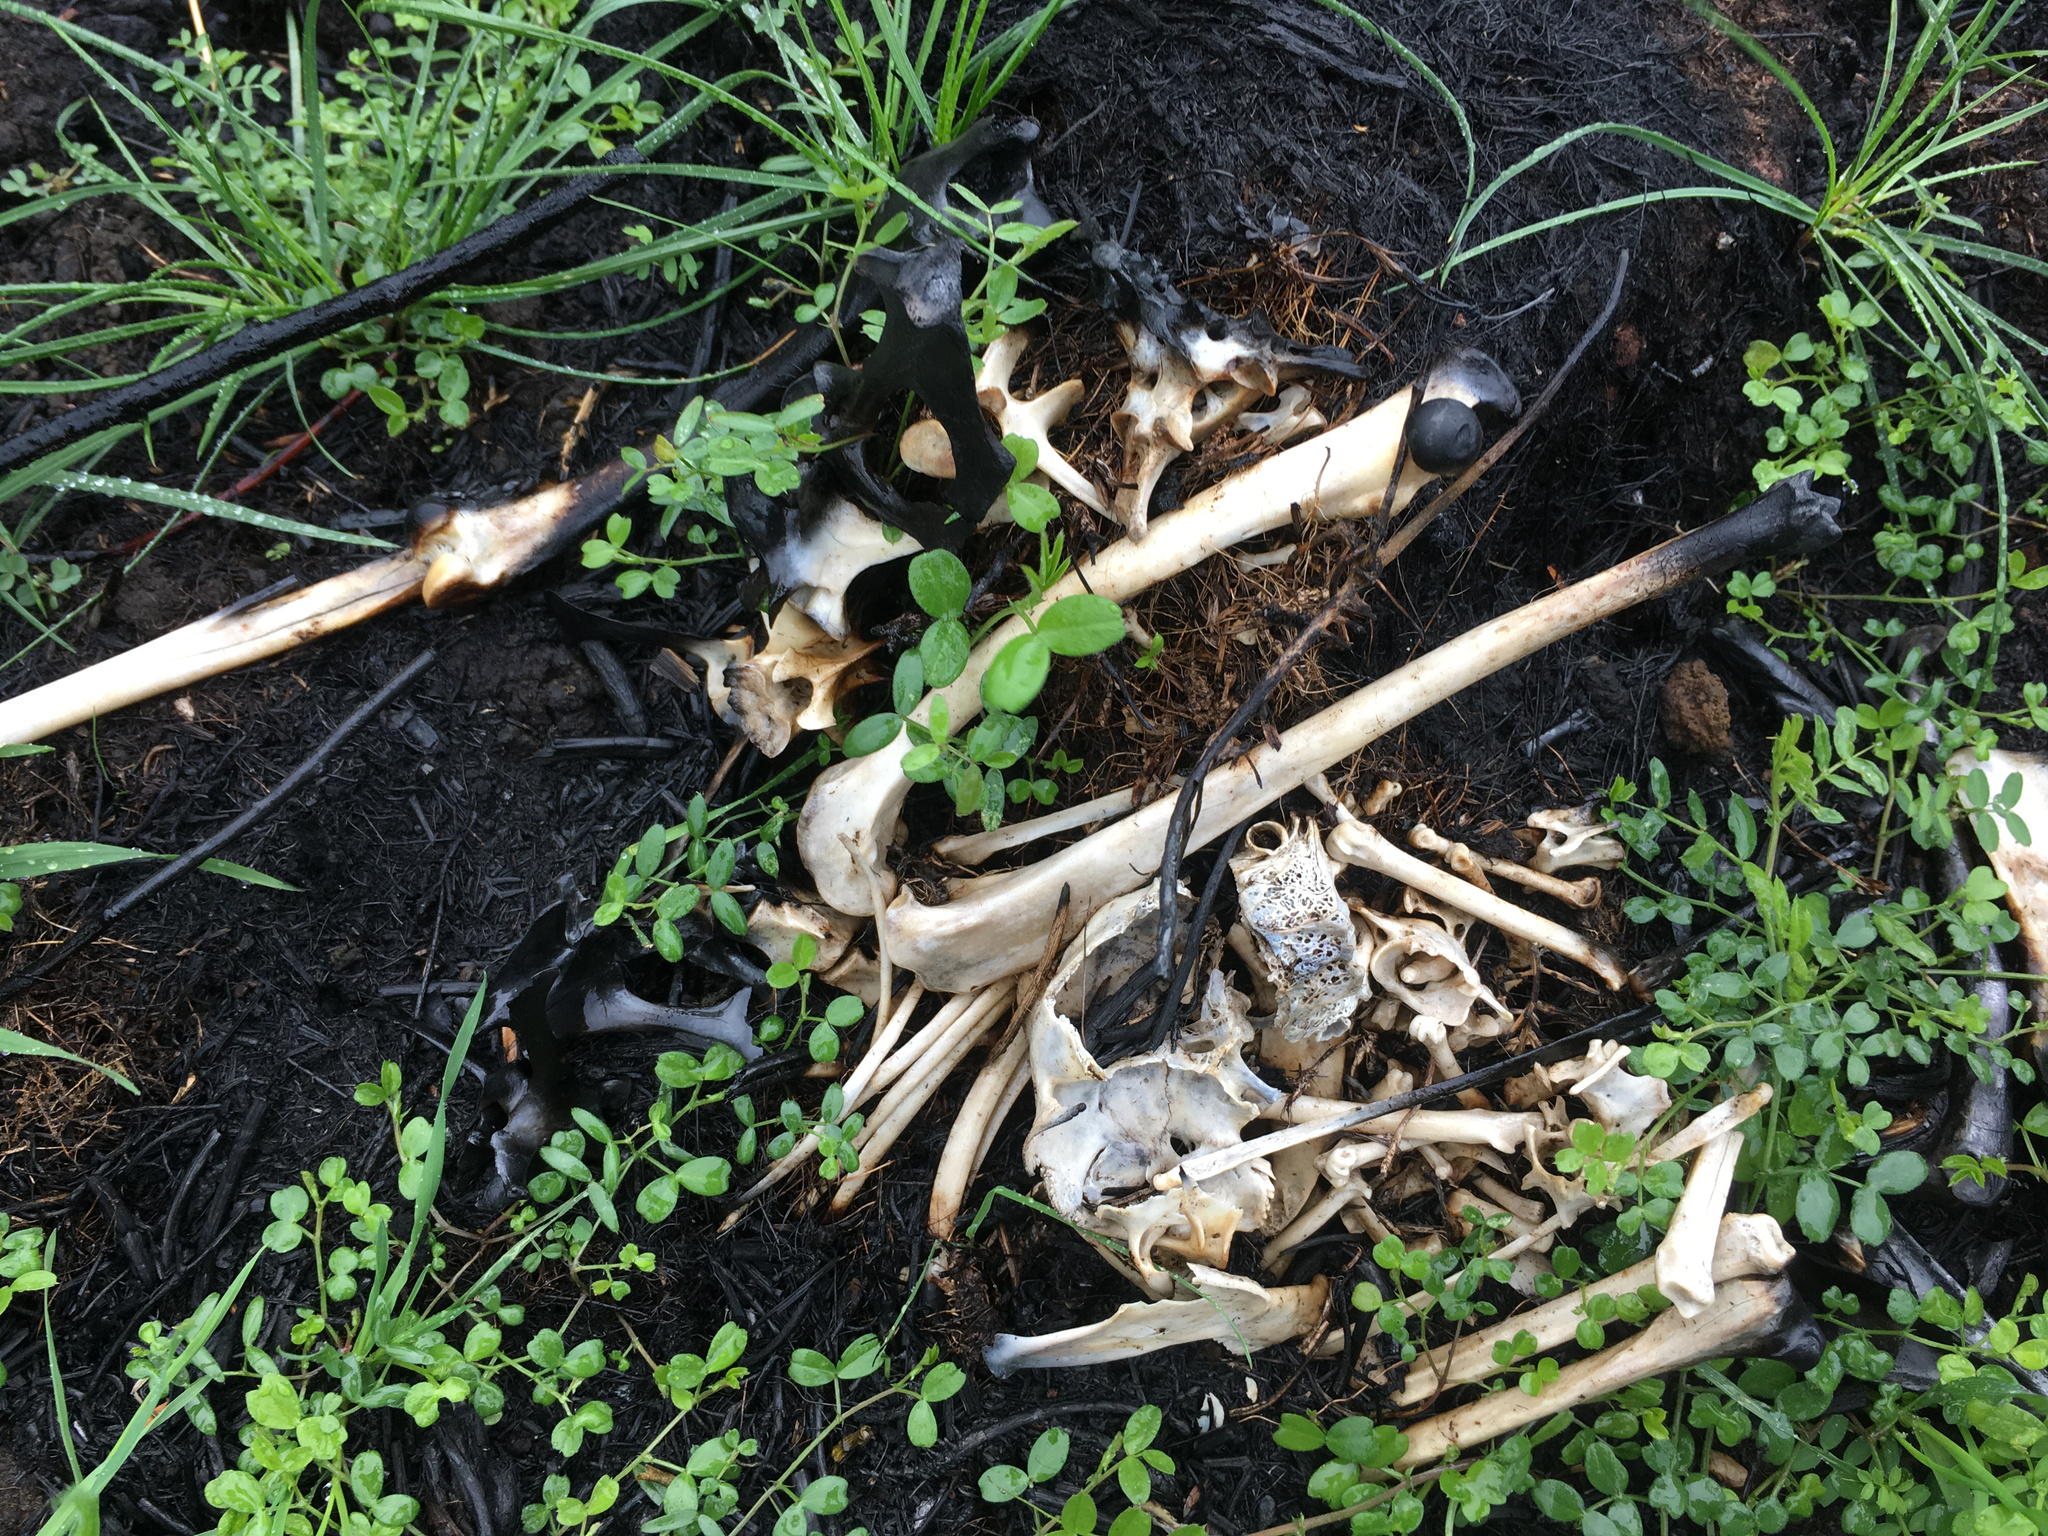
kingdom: Animalia
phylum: Chordata
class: Mammalia
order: Lagomorpha
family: Leporidae
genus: Lepus
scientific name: Lepus europaeus
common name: European hare
